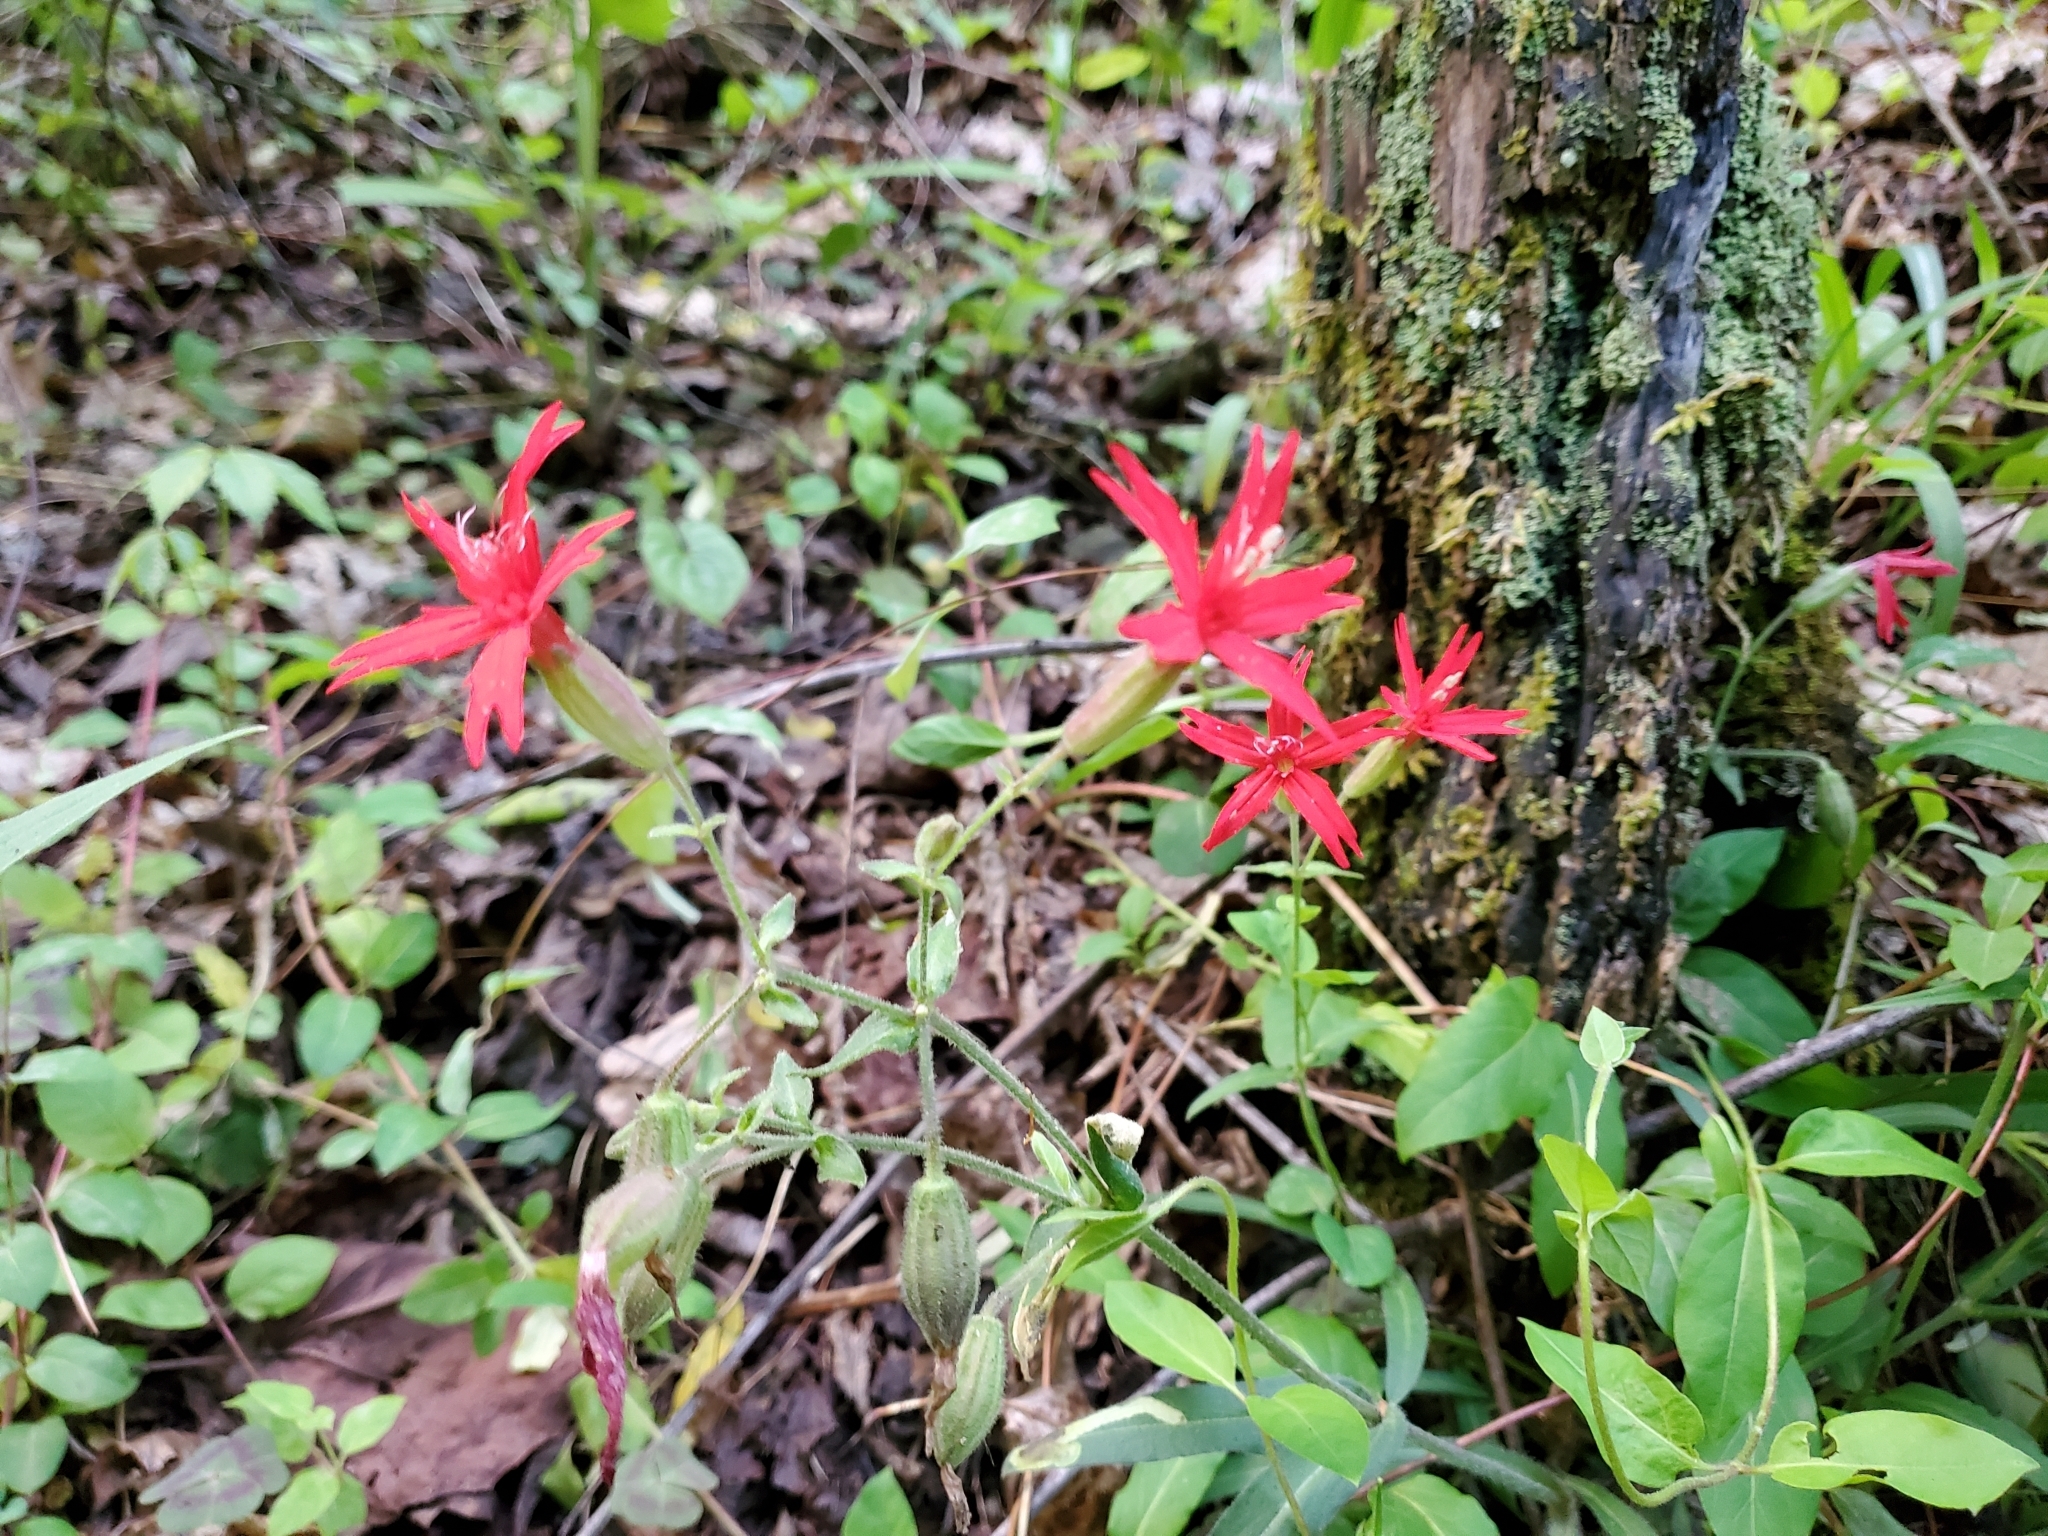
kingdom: Plantae
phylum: Tracheophyta
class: Magnoliopsida
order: Caryophyllales
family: Caryophyllaceae
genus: Silene
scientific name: Silene virginica
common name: Fire-pink
